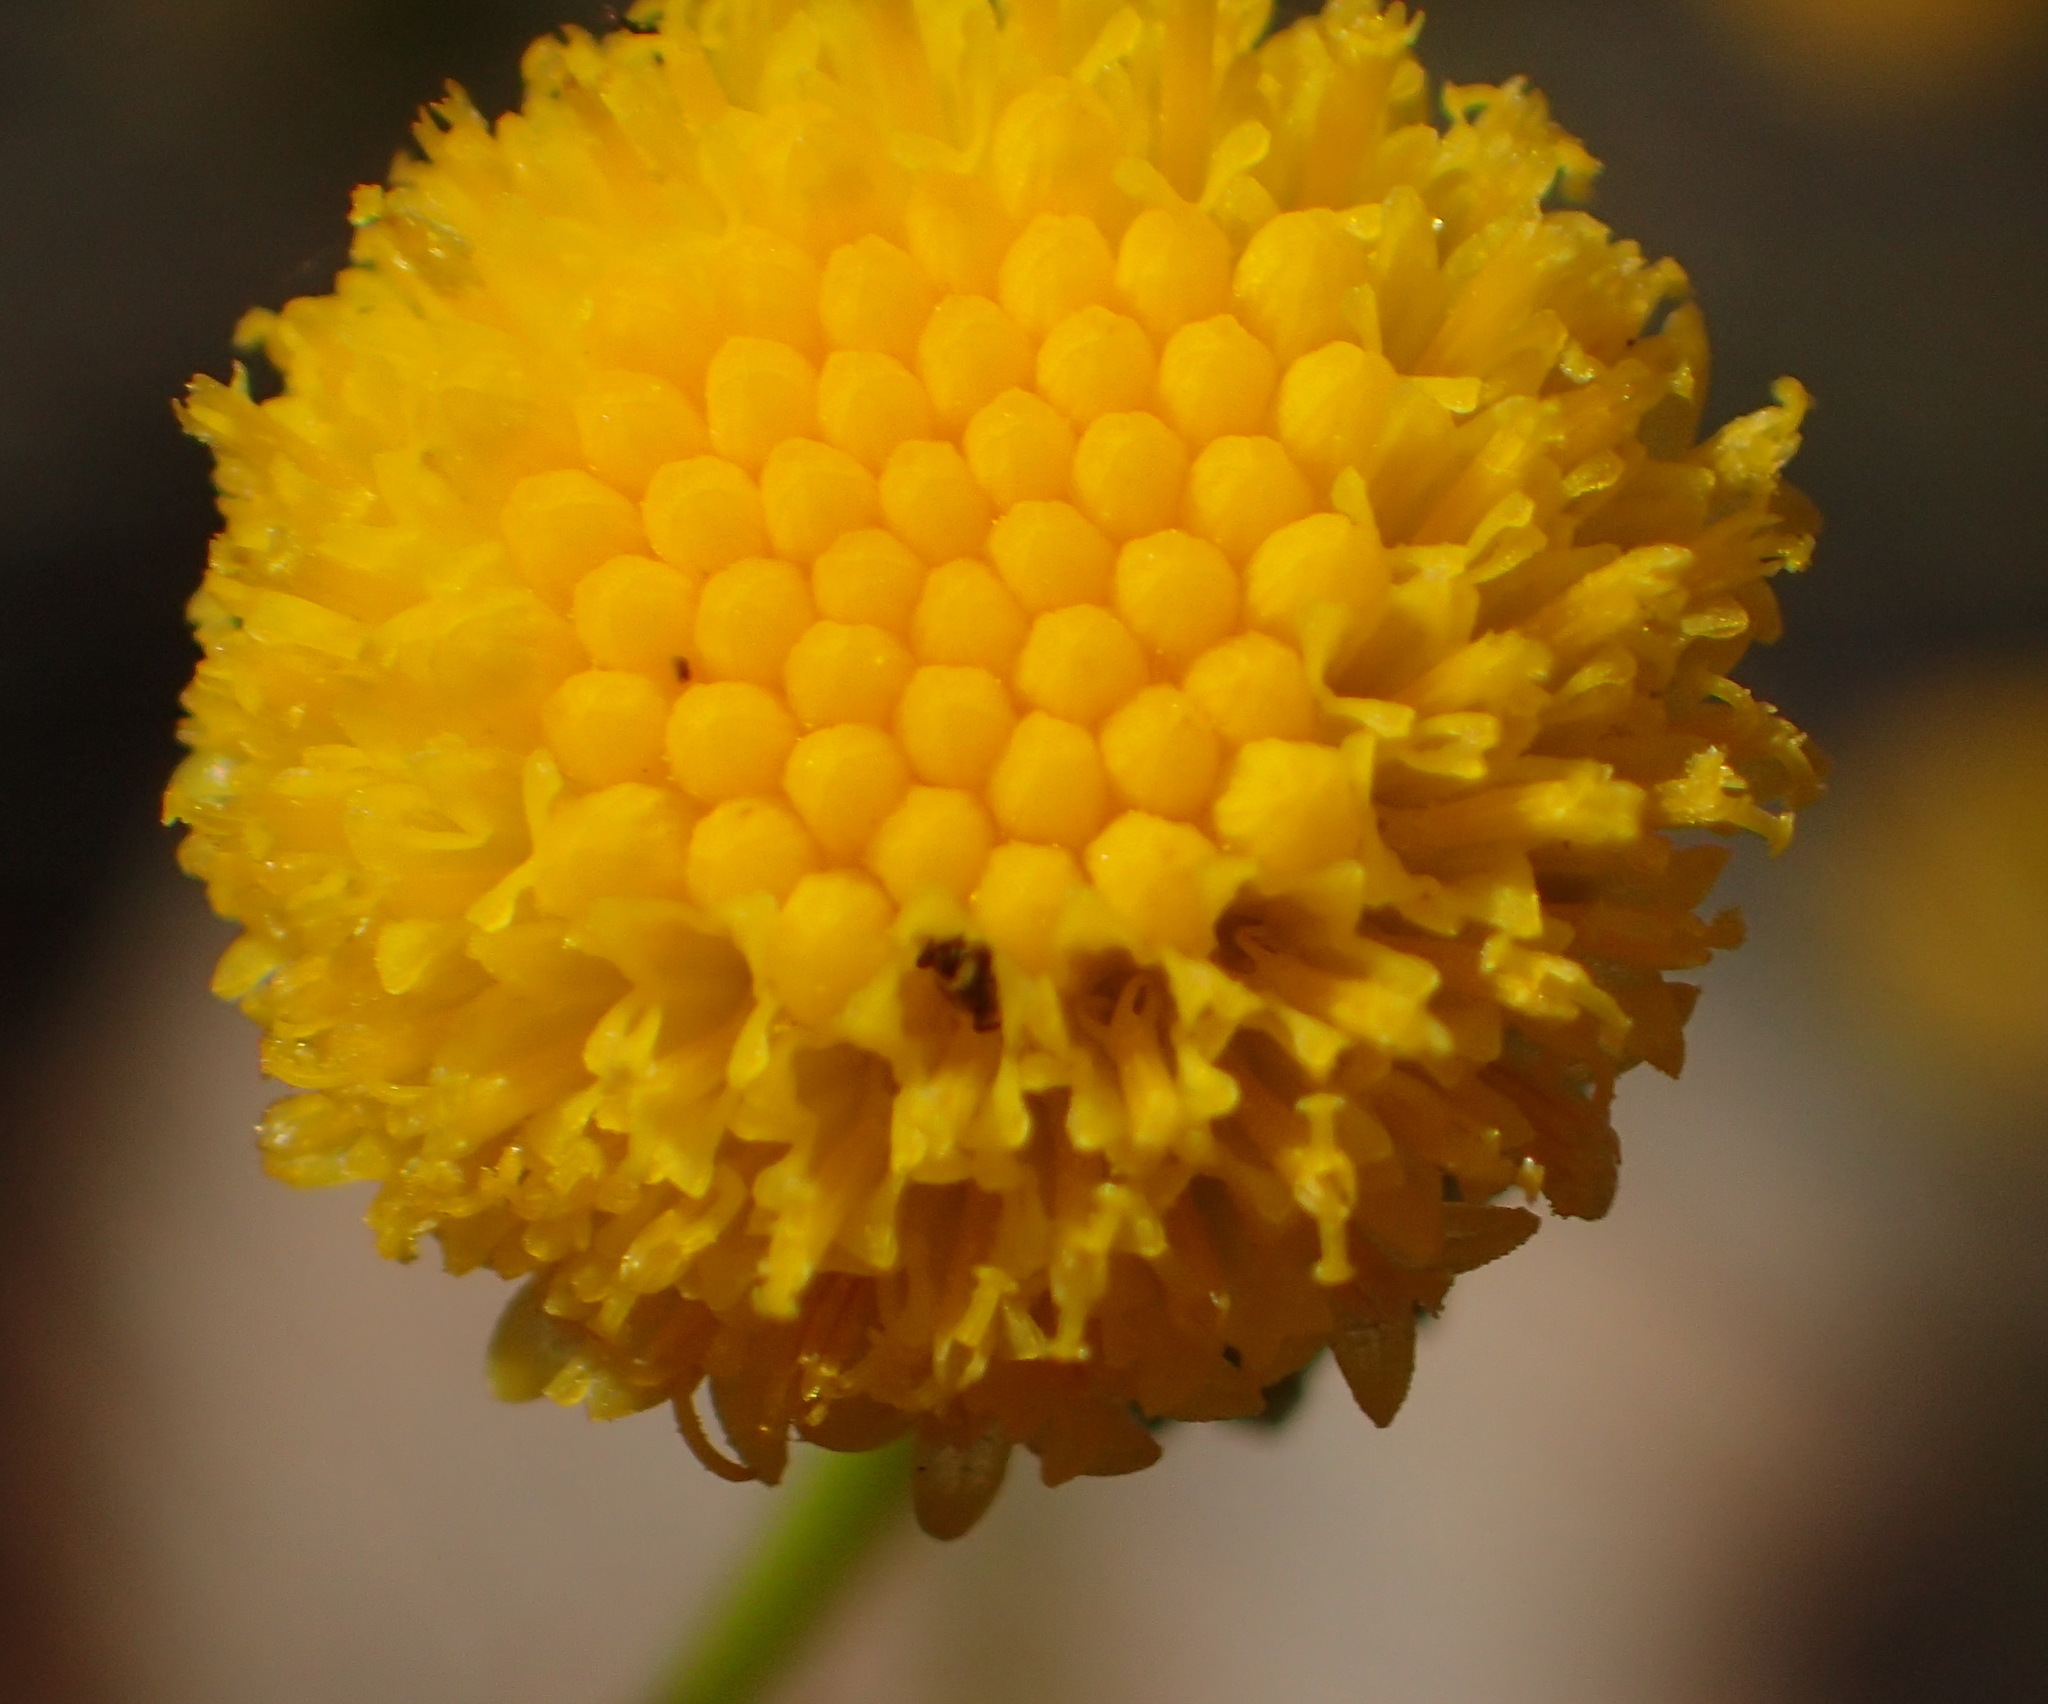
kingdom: Plantae
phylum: Tracheophyta
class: Magnoliopsida
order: Asterales
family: Asteraceae
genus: Senecio
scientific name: Senecio paniculatus
